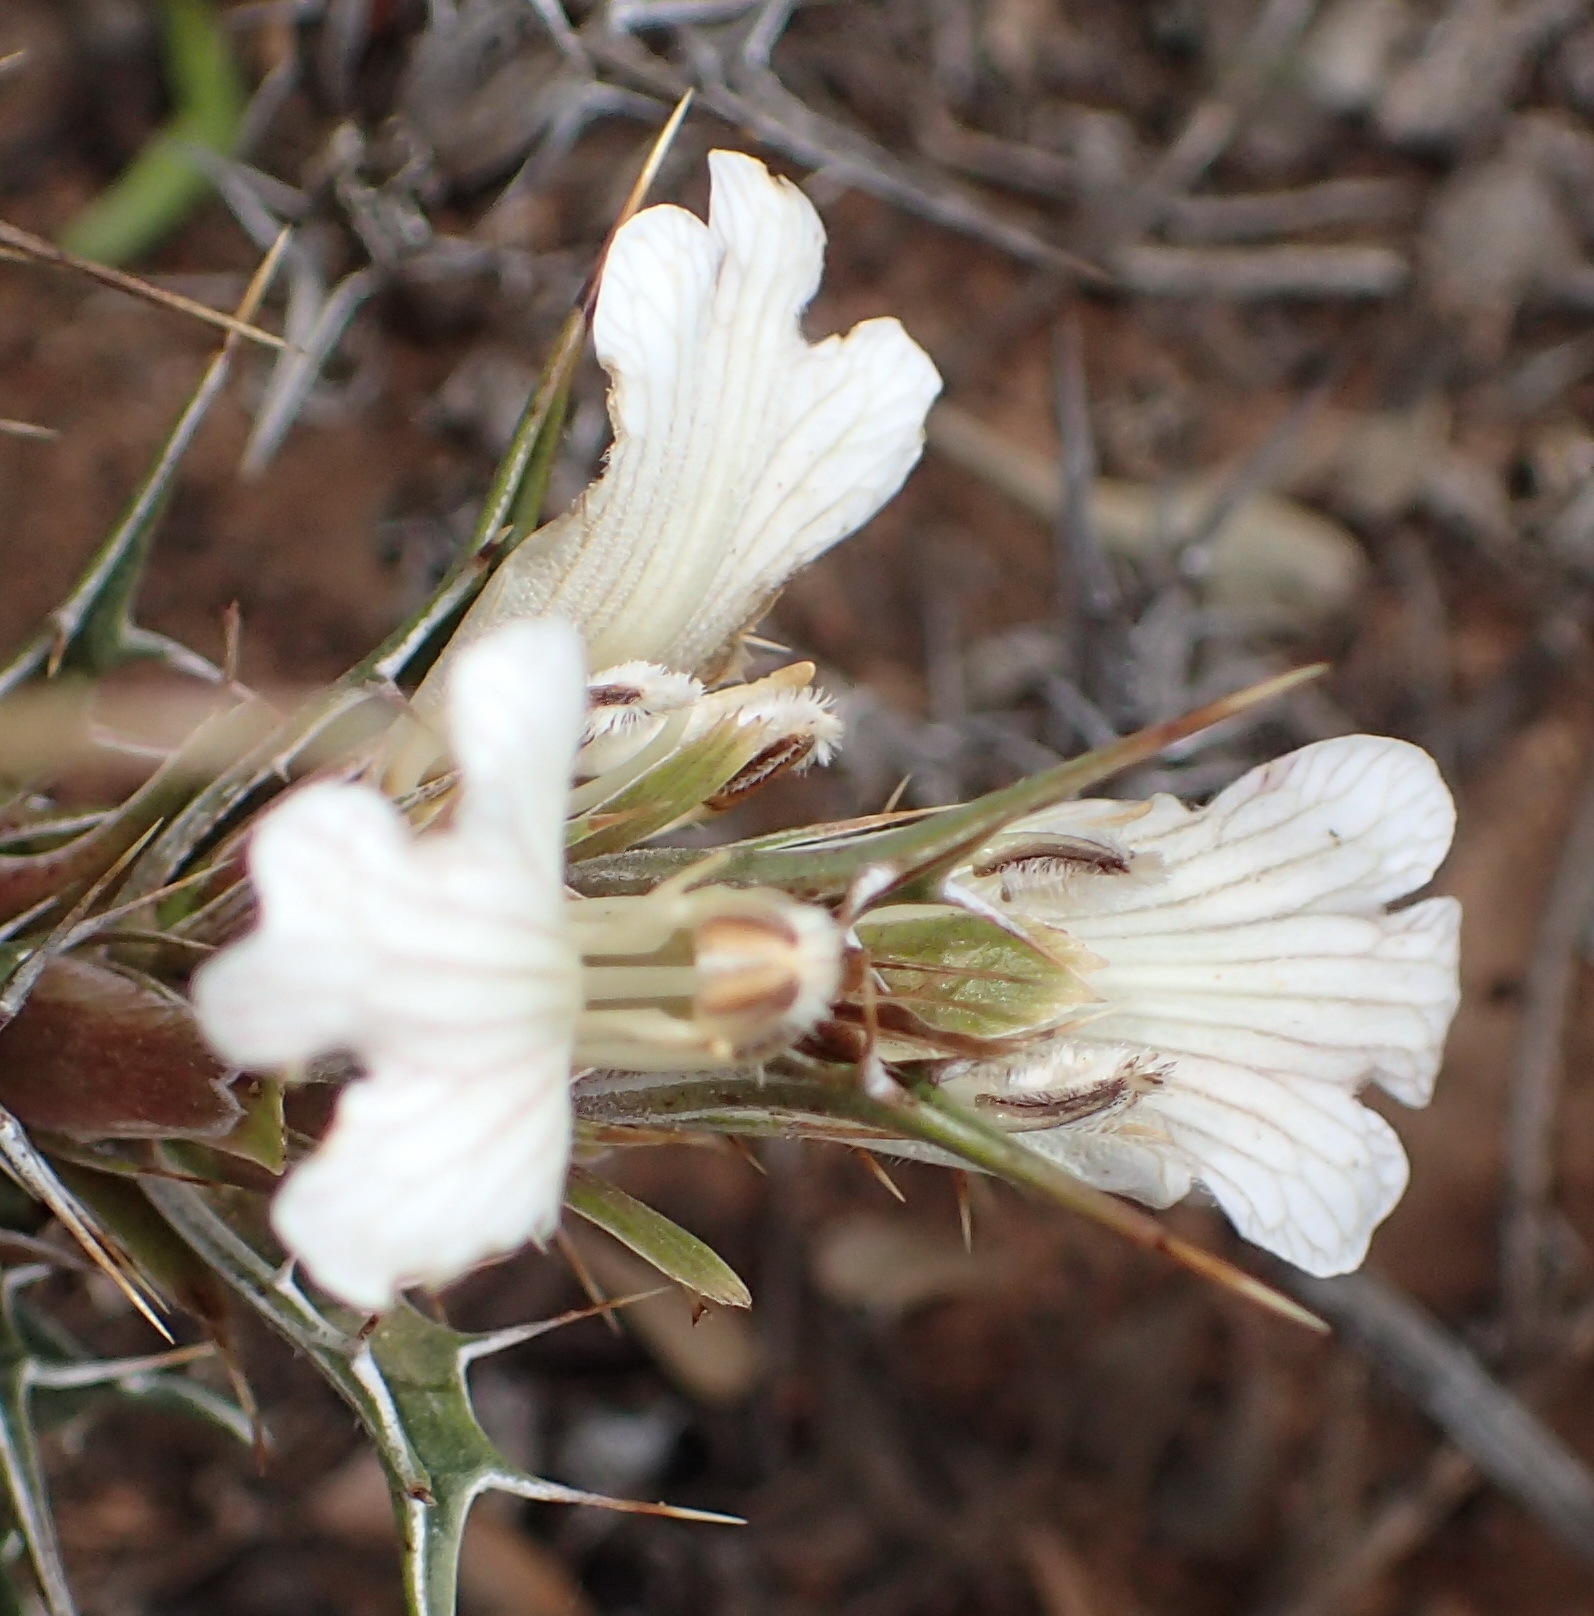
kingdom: Plantae
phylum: Tracheophyta
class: Magnoliopsida
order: Lamiales
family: Acanthaceae
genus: Blepharis
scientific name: Blepharis capensis
